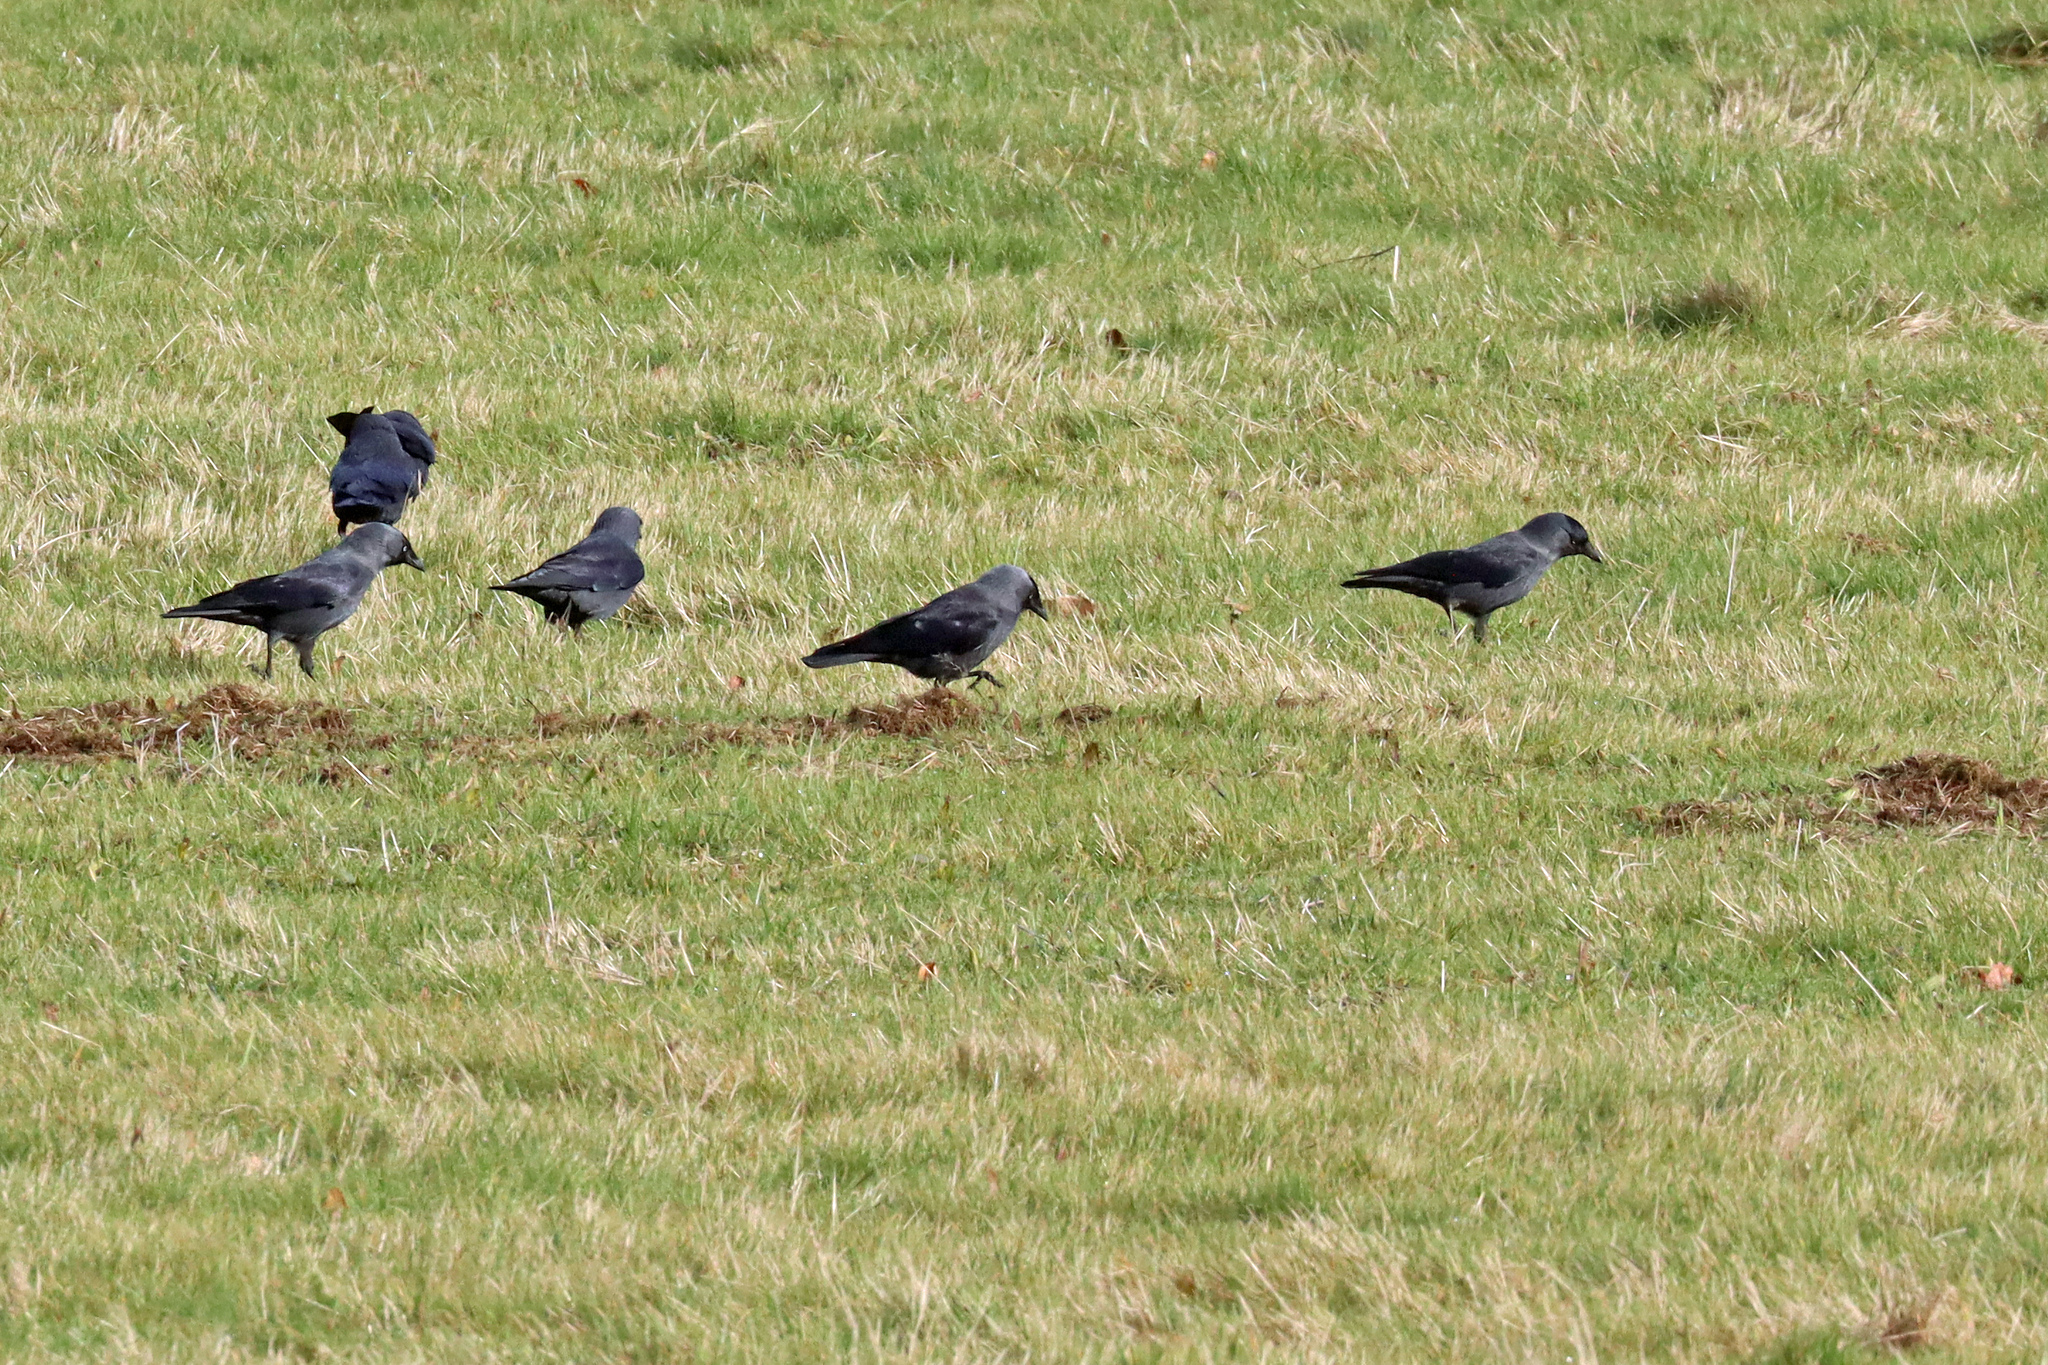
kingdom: Animalia
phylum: Chordata
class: Aves
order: Passeriformes
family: Corvidae
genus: Coloeus
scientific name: Coloeus monedula
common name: Western jackdaw
